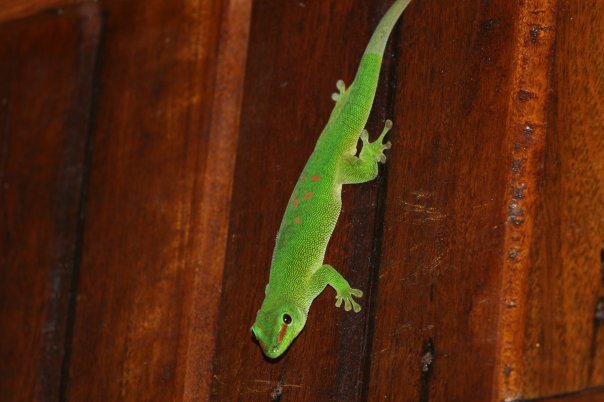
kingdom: Animalia
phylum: Chordata
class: Squamata
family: Gekkonidae
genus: Phelsuma
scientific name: Phelsuma grandis
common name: Madagascar giant day gecko
